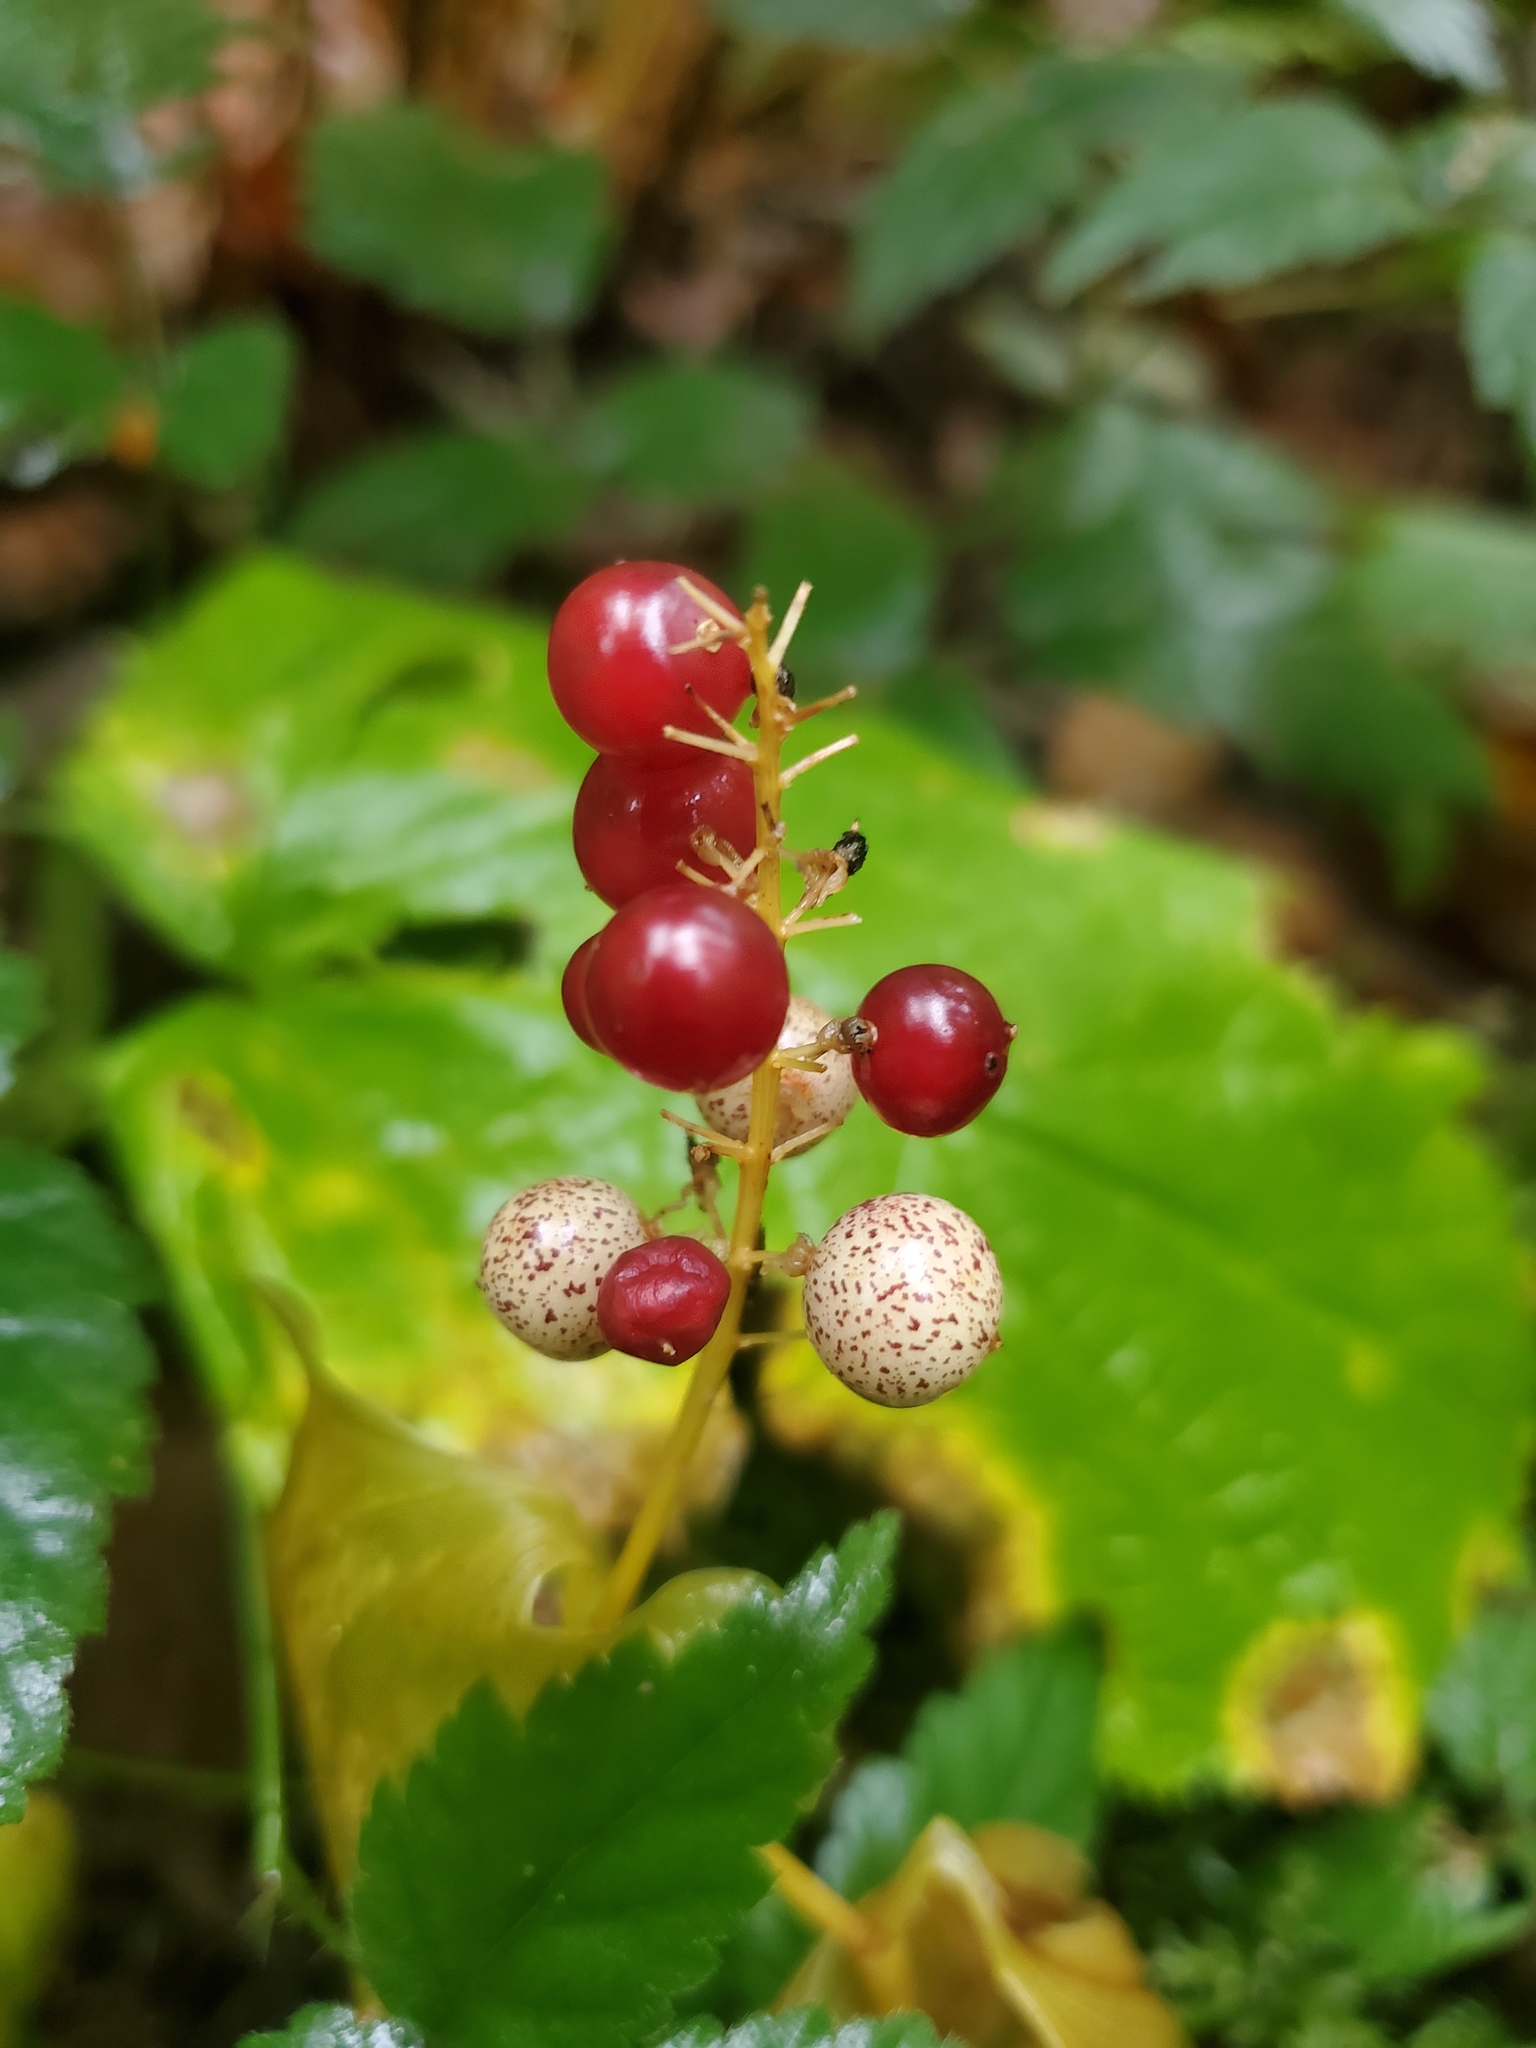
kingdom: Plantae
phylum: Tracheophyta
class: Liliopsida
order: Asparagales
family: Asparagaceae
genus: Maianthemum
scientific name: Maianthemum dilatatum
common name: False lily-of-the-valley
